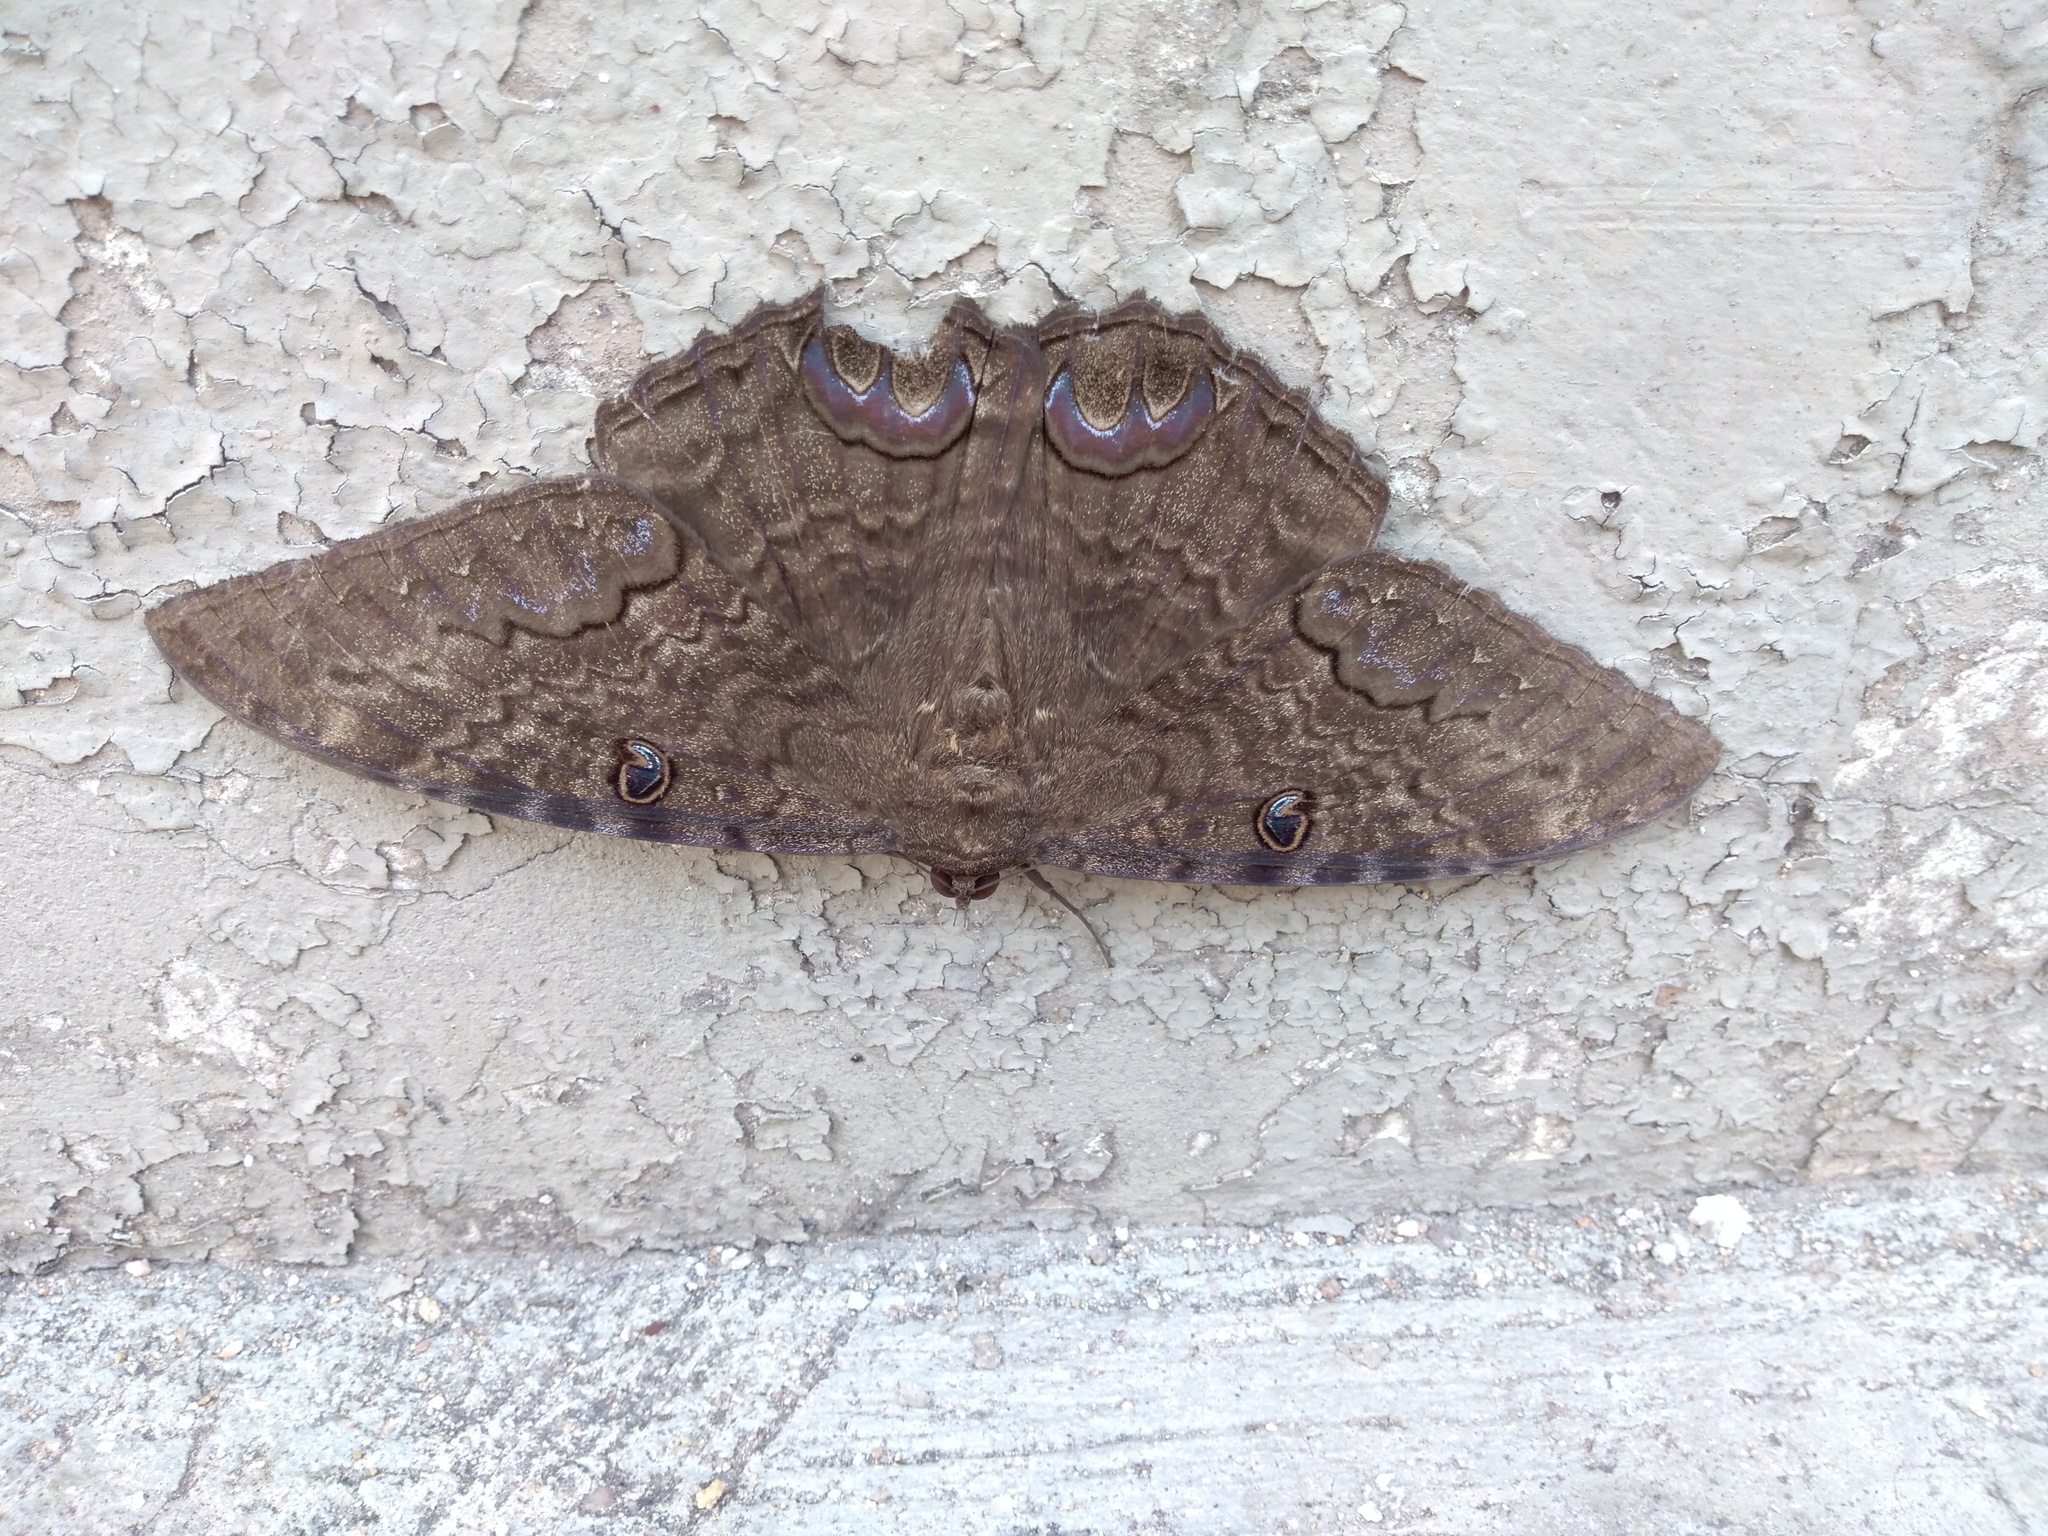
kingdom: Animalia
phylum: Arthropoda
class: Insecta
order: Lepidoptera
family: Erebidae
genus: Ascalapha
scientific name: Ascalapha odorata
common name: Black witch
